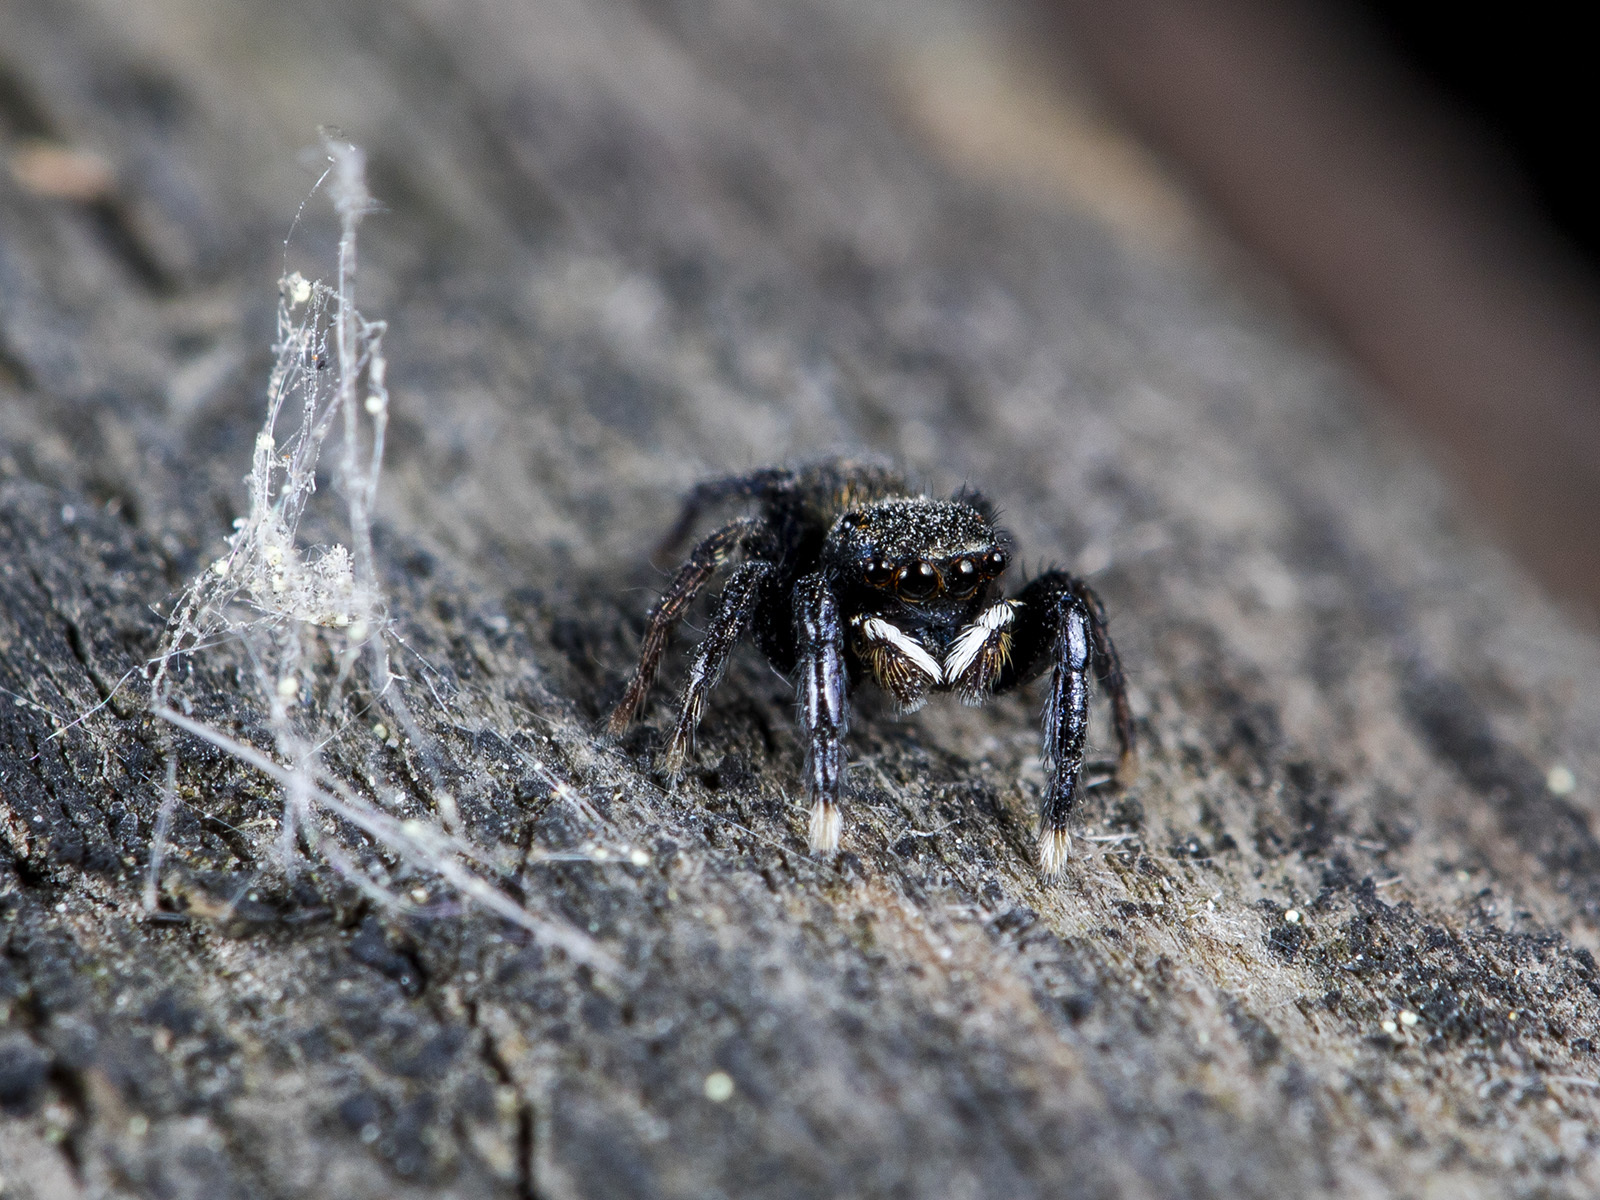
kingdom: Animalia
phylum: Arthropoda
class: Arachnida
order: Araneae
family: Salticidae
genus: Euophrys
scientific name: Euophrys frontalis
